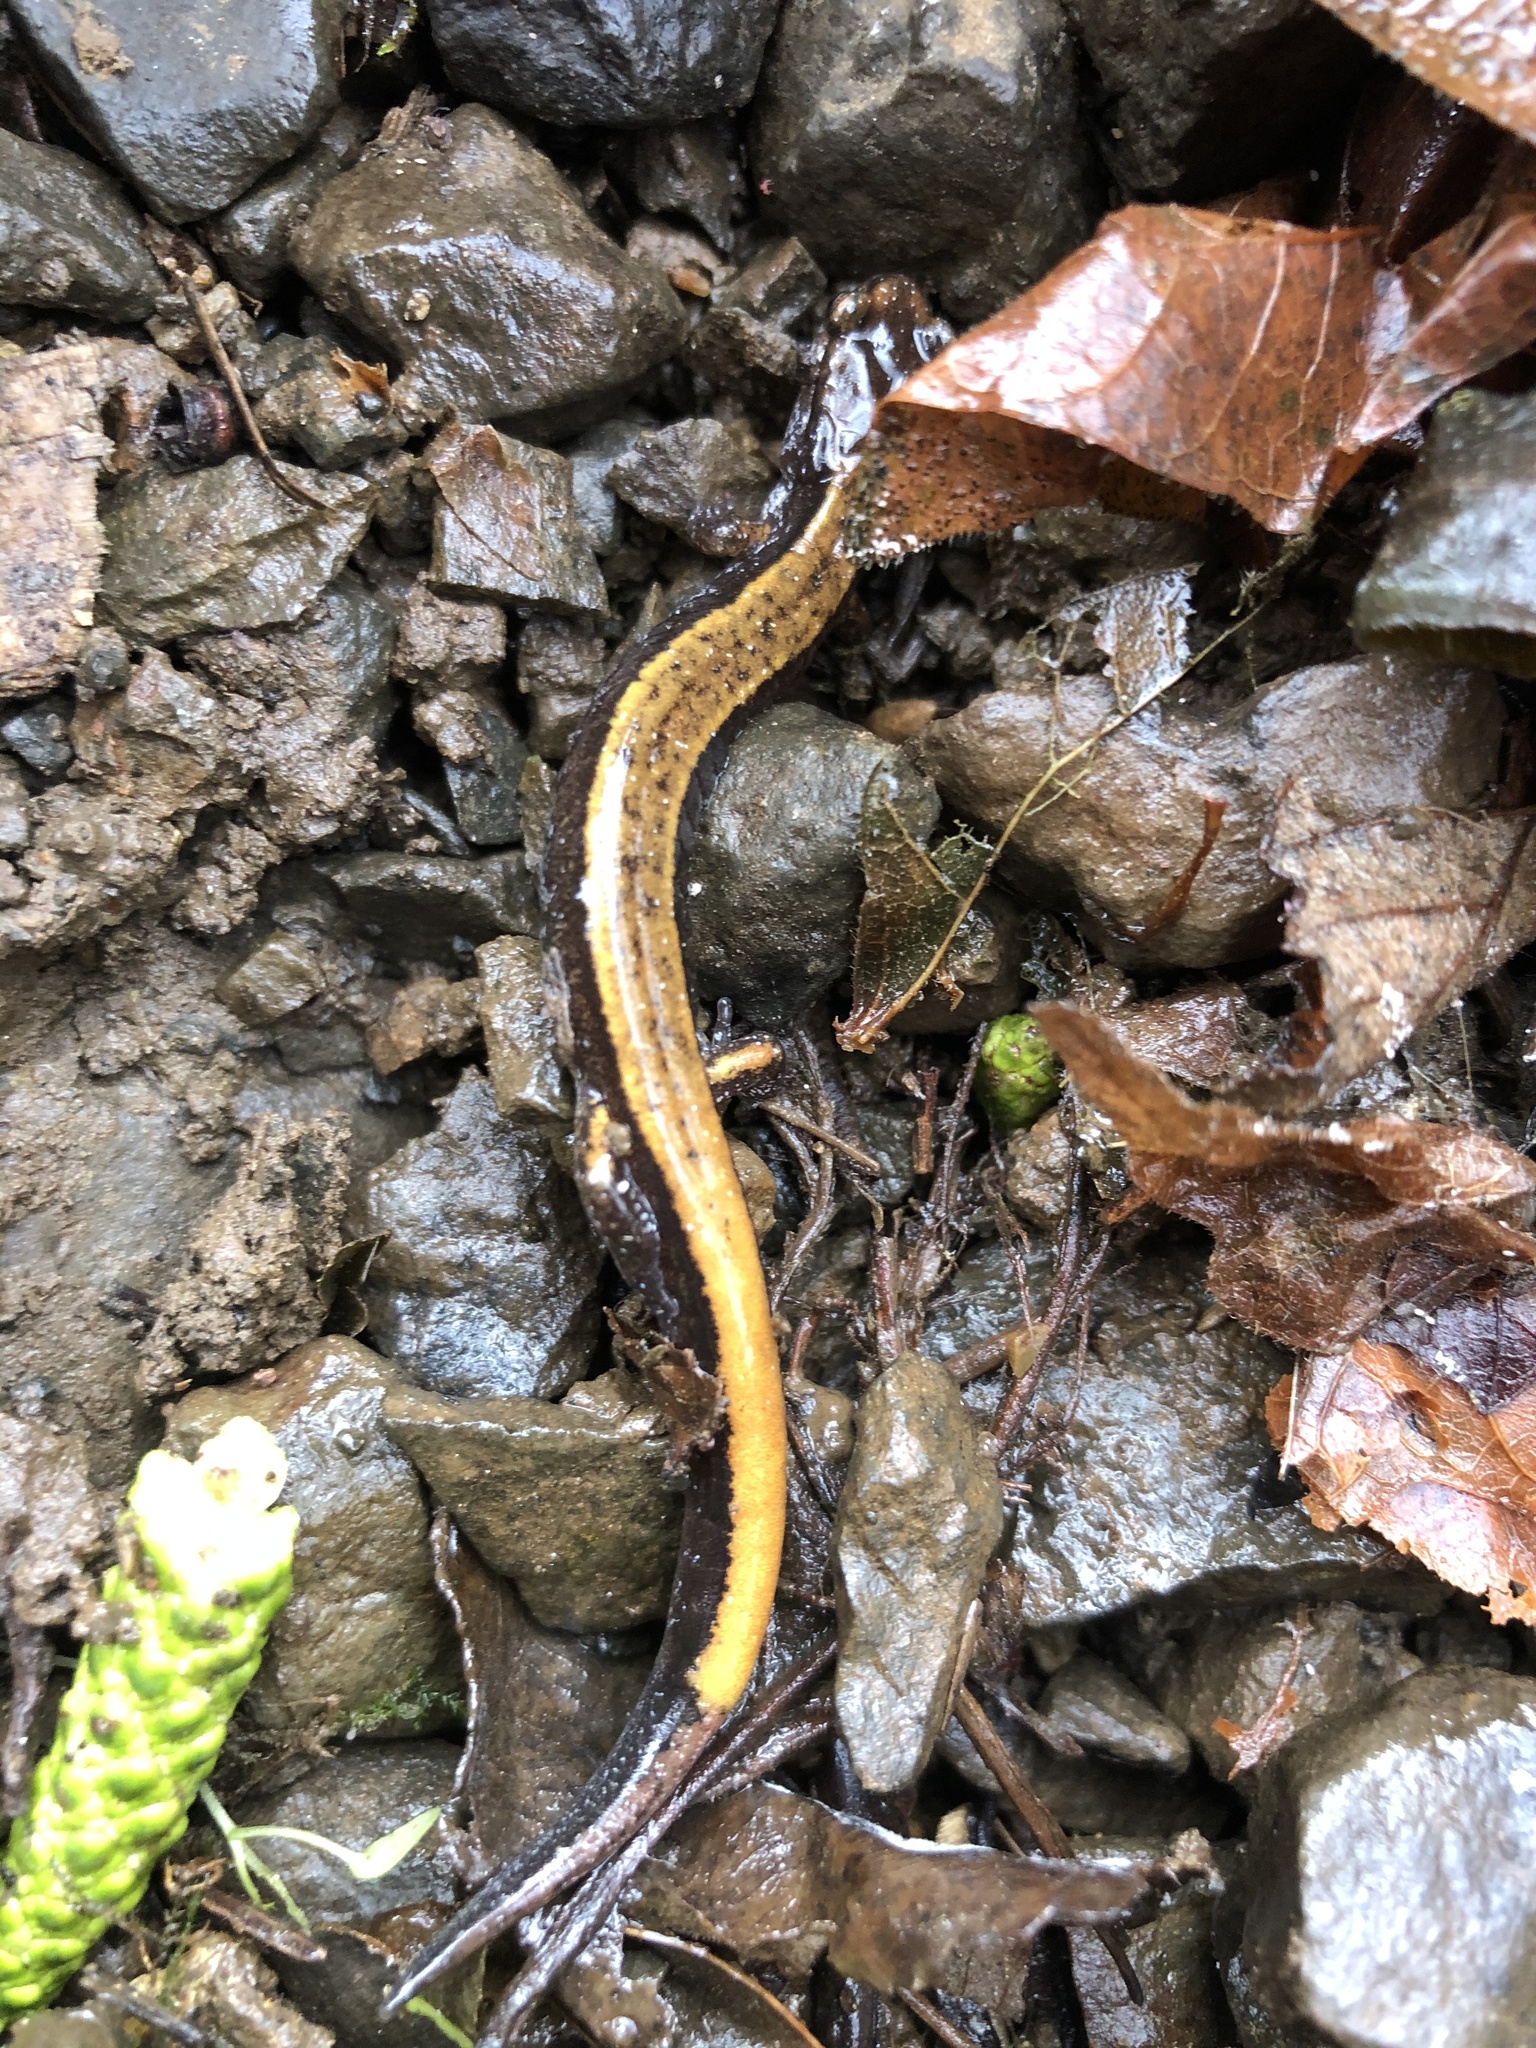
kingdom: Animalia
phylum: Chordata
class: Amphibia
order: Caudata
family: Plethodontidae
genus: Plethodon
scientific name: Plethodon vehiculum
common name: Western red-backed salamander
